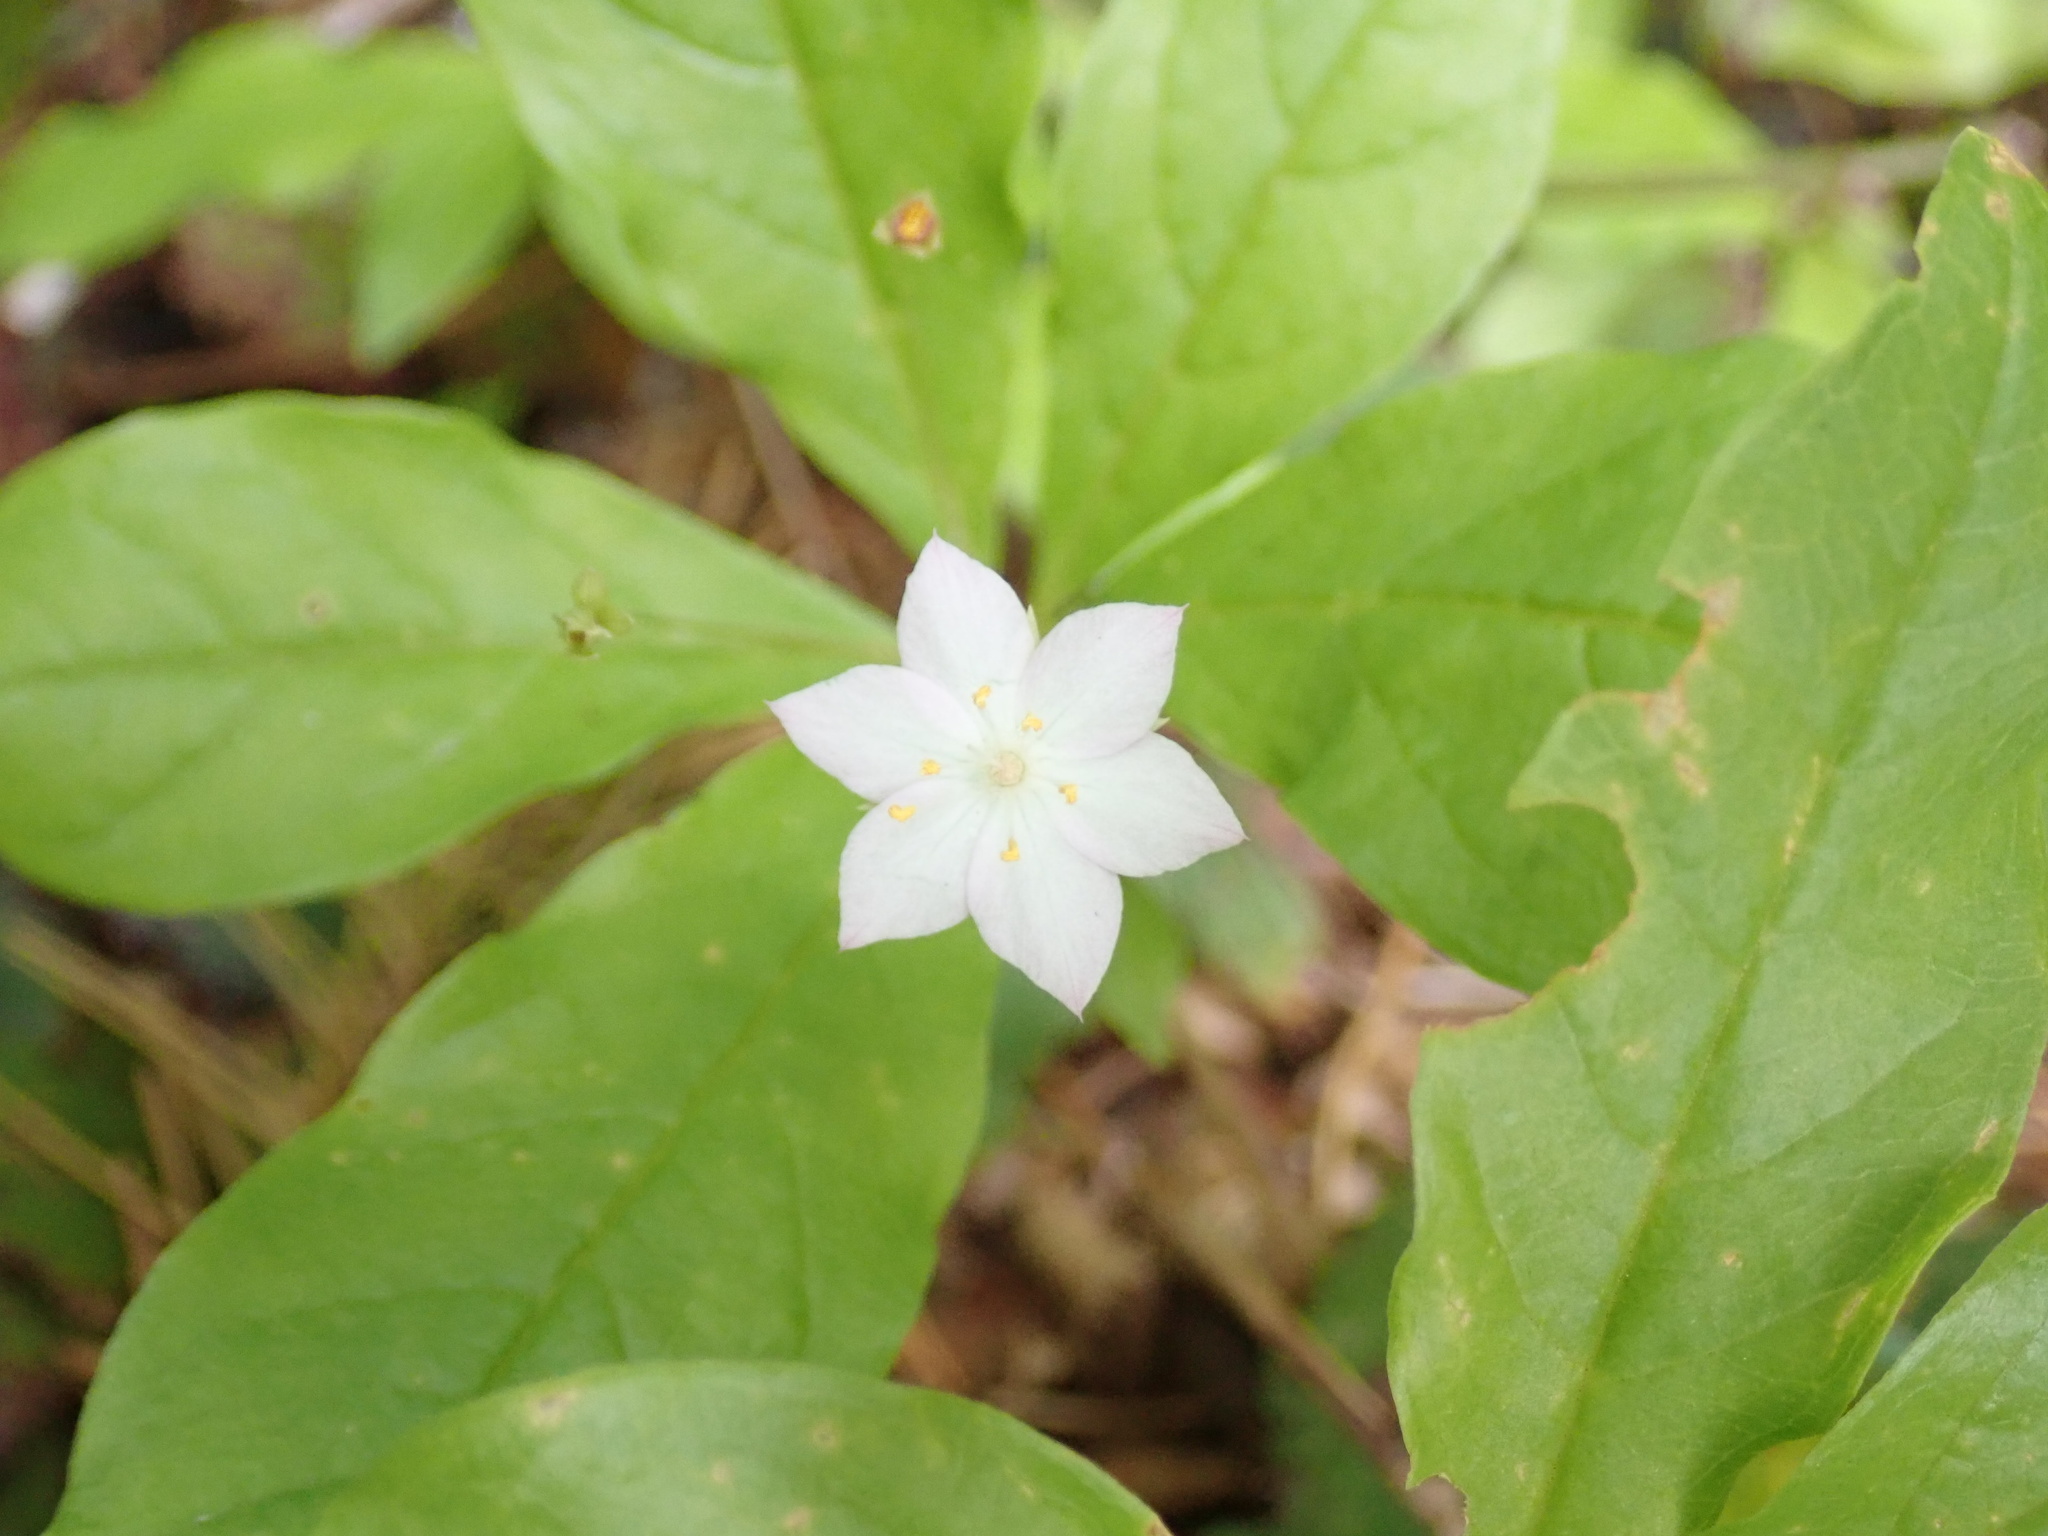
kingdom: Plantae
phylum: Tracheophyta
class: Magnoliopsida
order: Ericales
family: Primulaceae
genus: Lysimachia
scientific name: Lysimachia latifolia
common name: Pacific starflower
